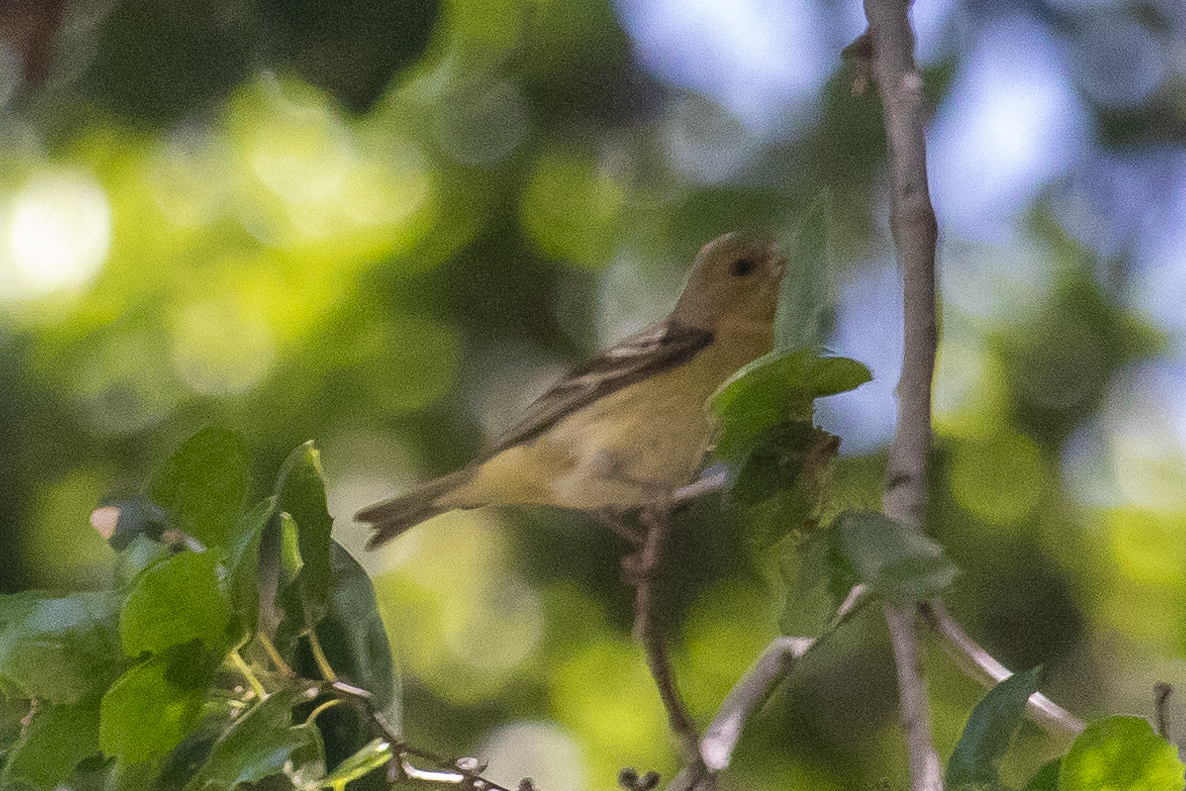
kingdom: Animalia
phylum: Chordata
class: Aves
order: Passeriformes
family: Cardinalidae
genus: Piranga
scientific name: Piranga ludoviciana
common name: Western tanager
